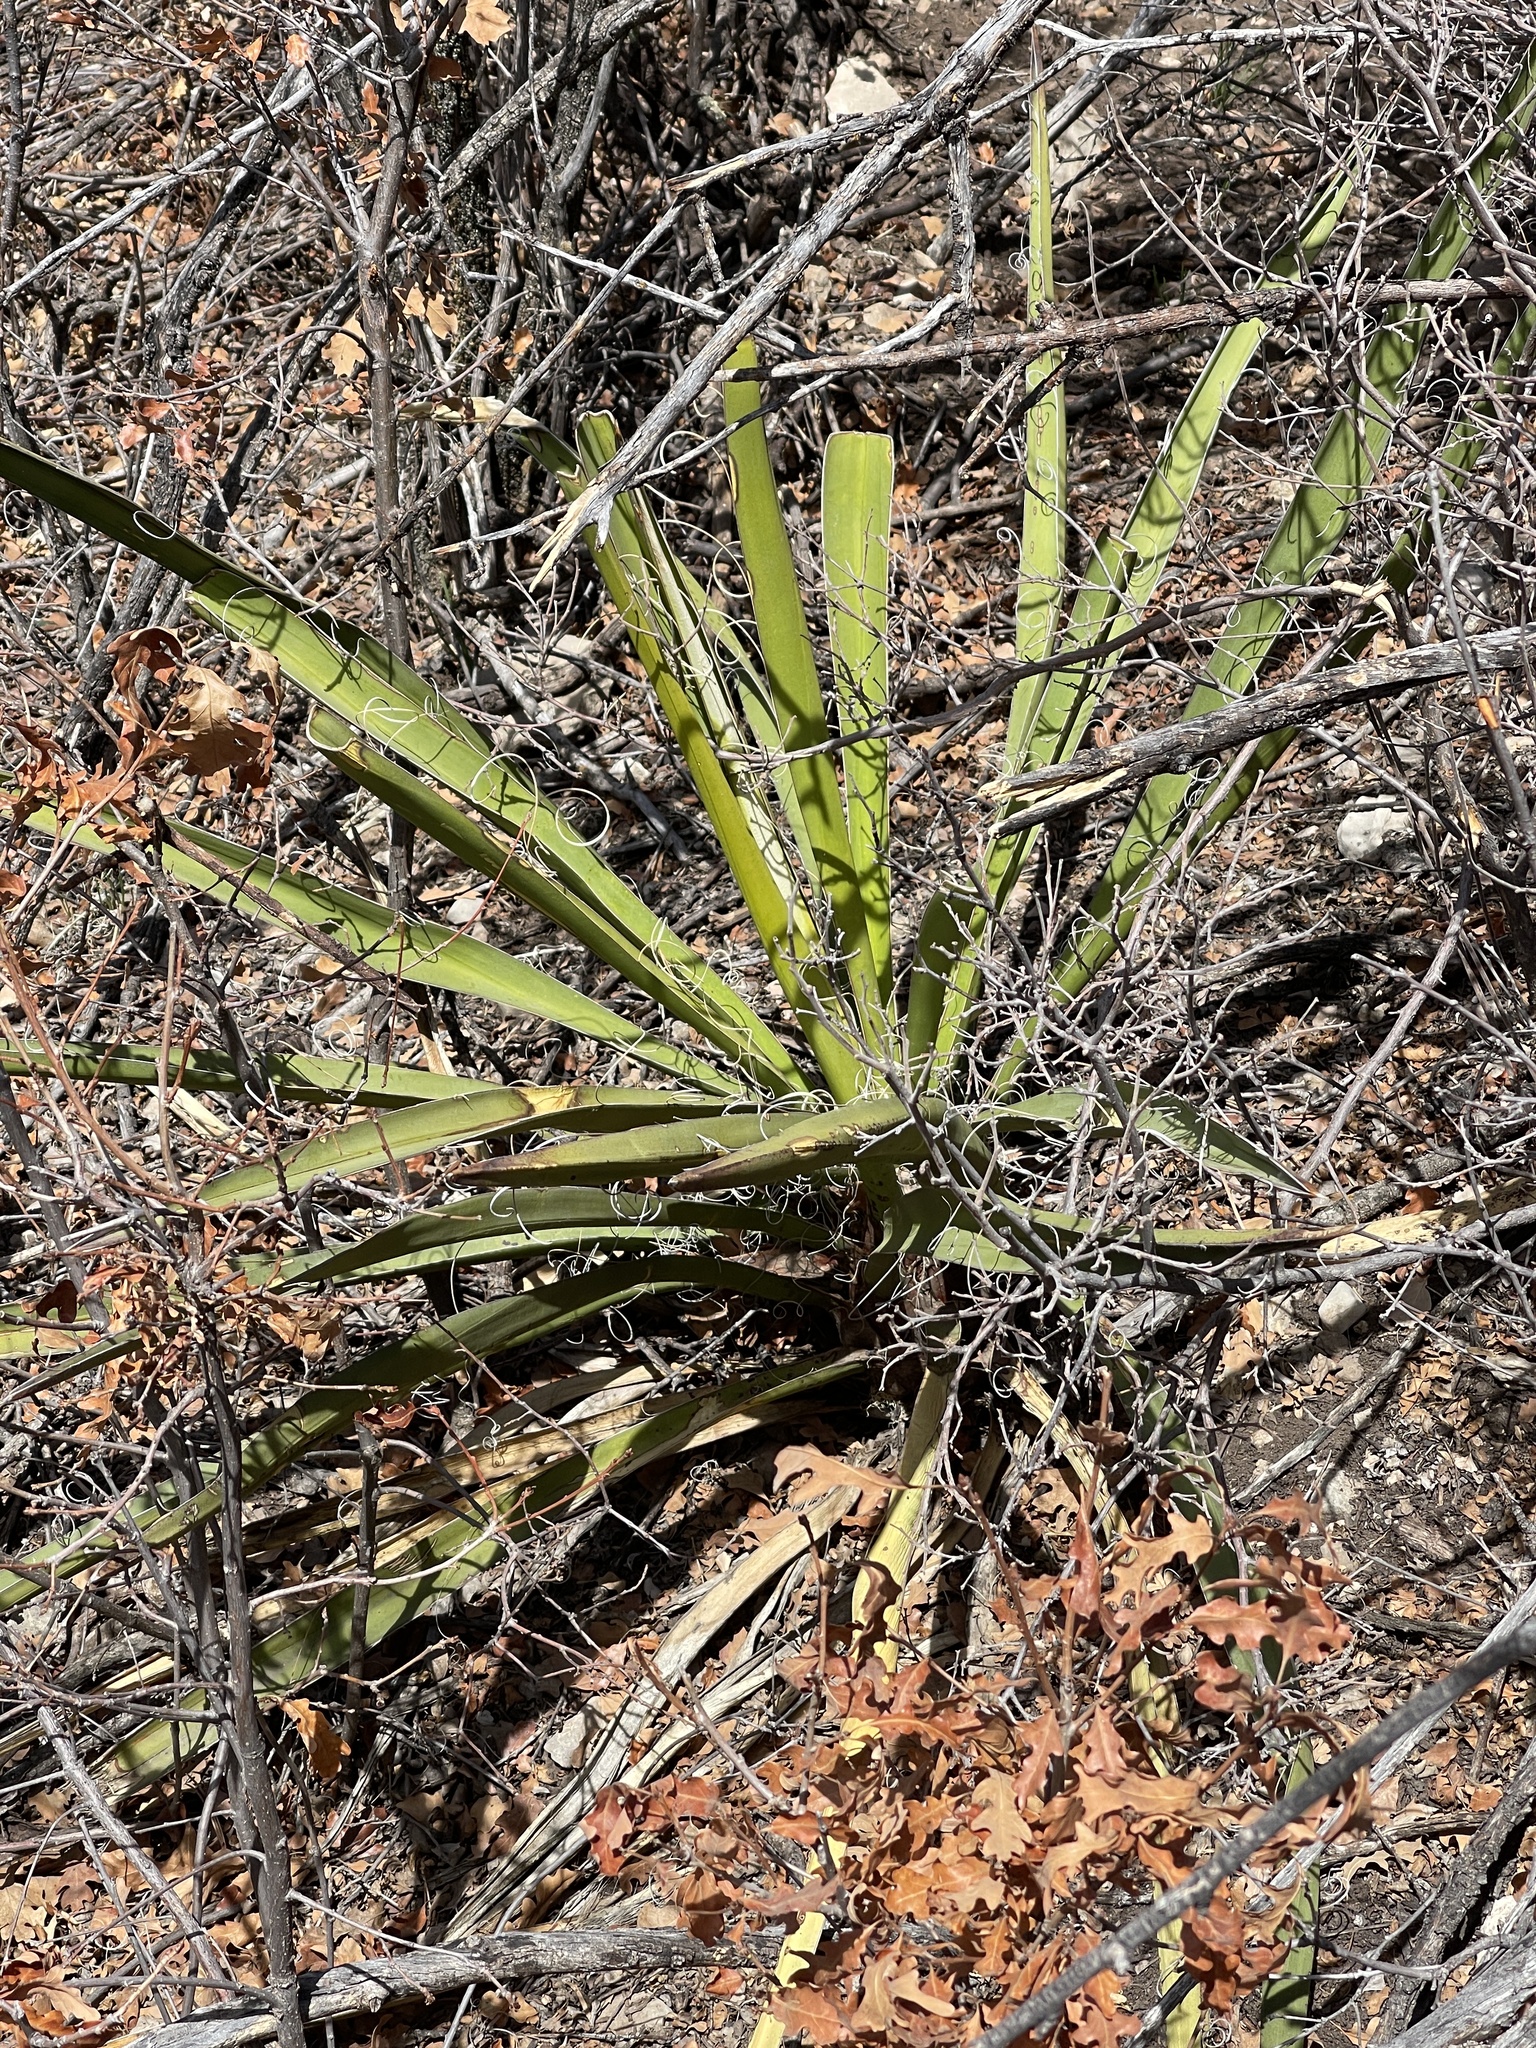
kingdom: Plantae
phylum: Tracheophyta
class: Liliopsida
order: Asparagales
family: Asparagaceae
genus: Yucca
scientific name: Yucca baccata
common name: Banana yucca
